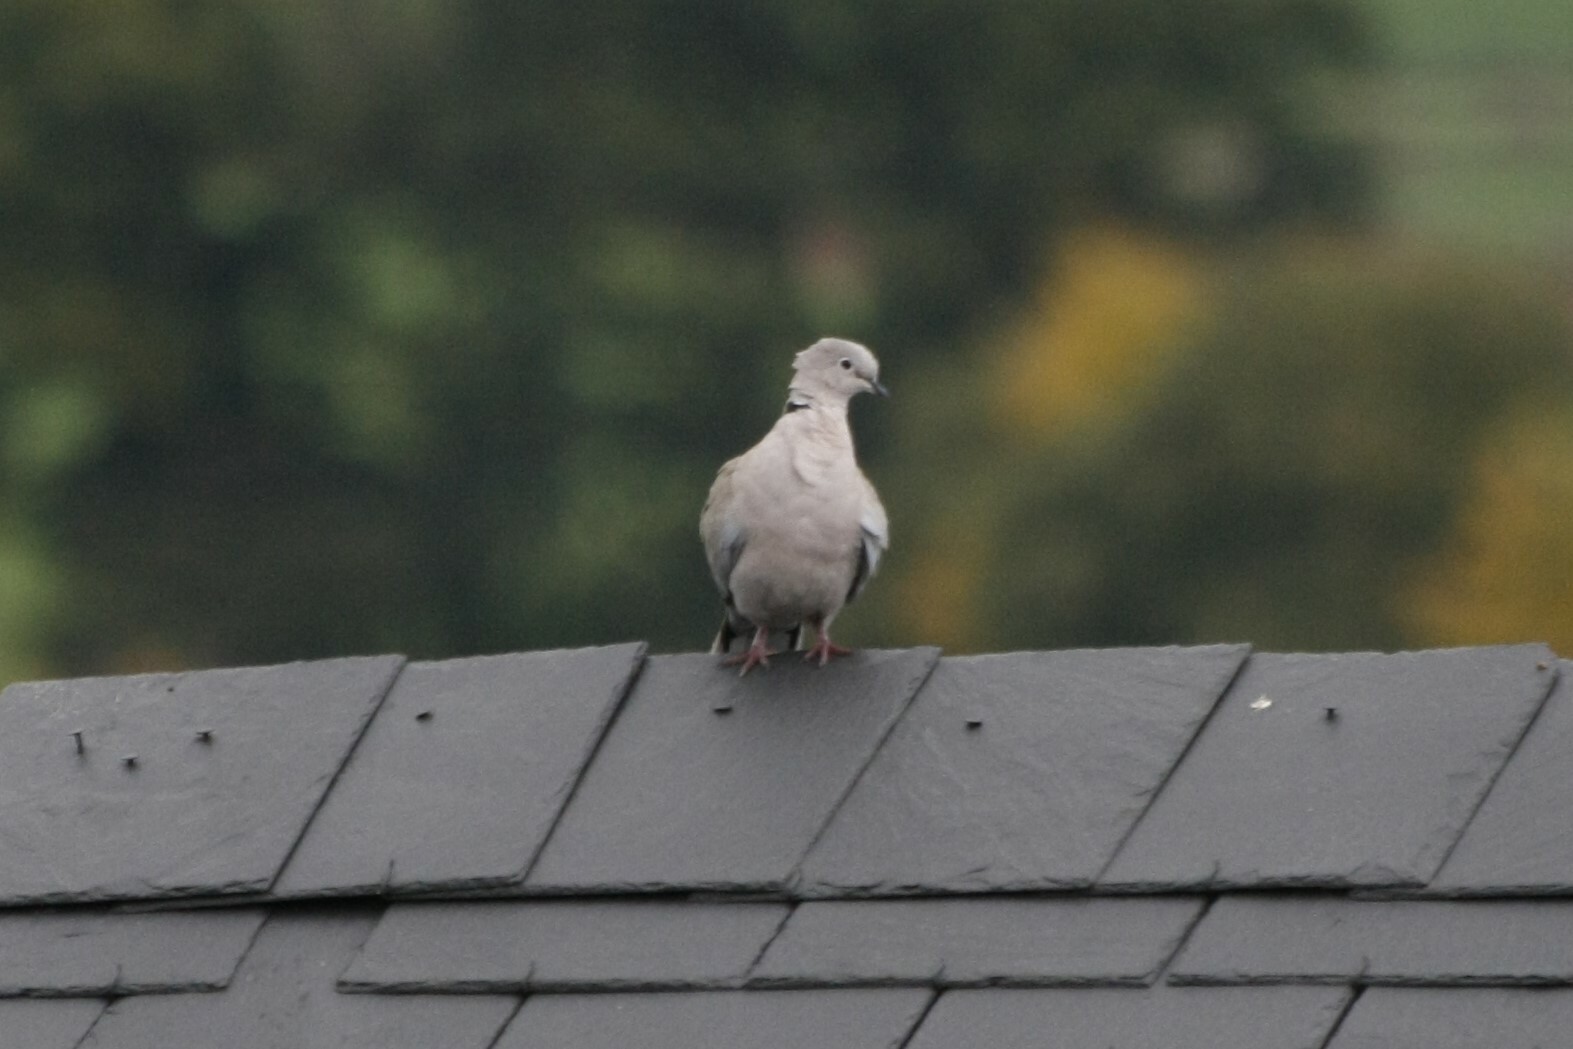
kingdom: Animalia
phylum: Chordata
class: Aves
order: Columbiformes
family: Columbidae
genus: Streptopelia
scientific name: Streptopelia decaocto
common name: Eurasian collared dove
